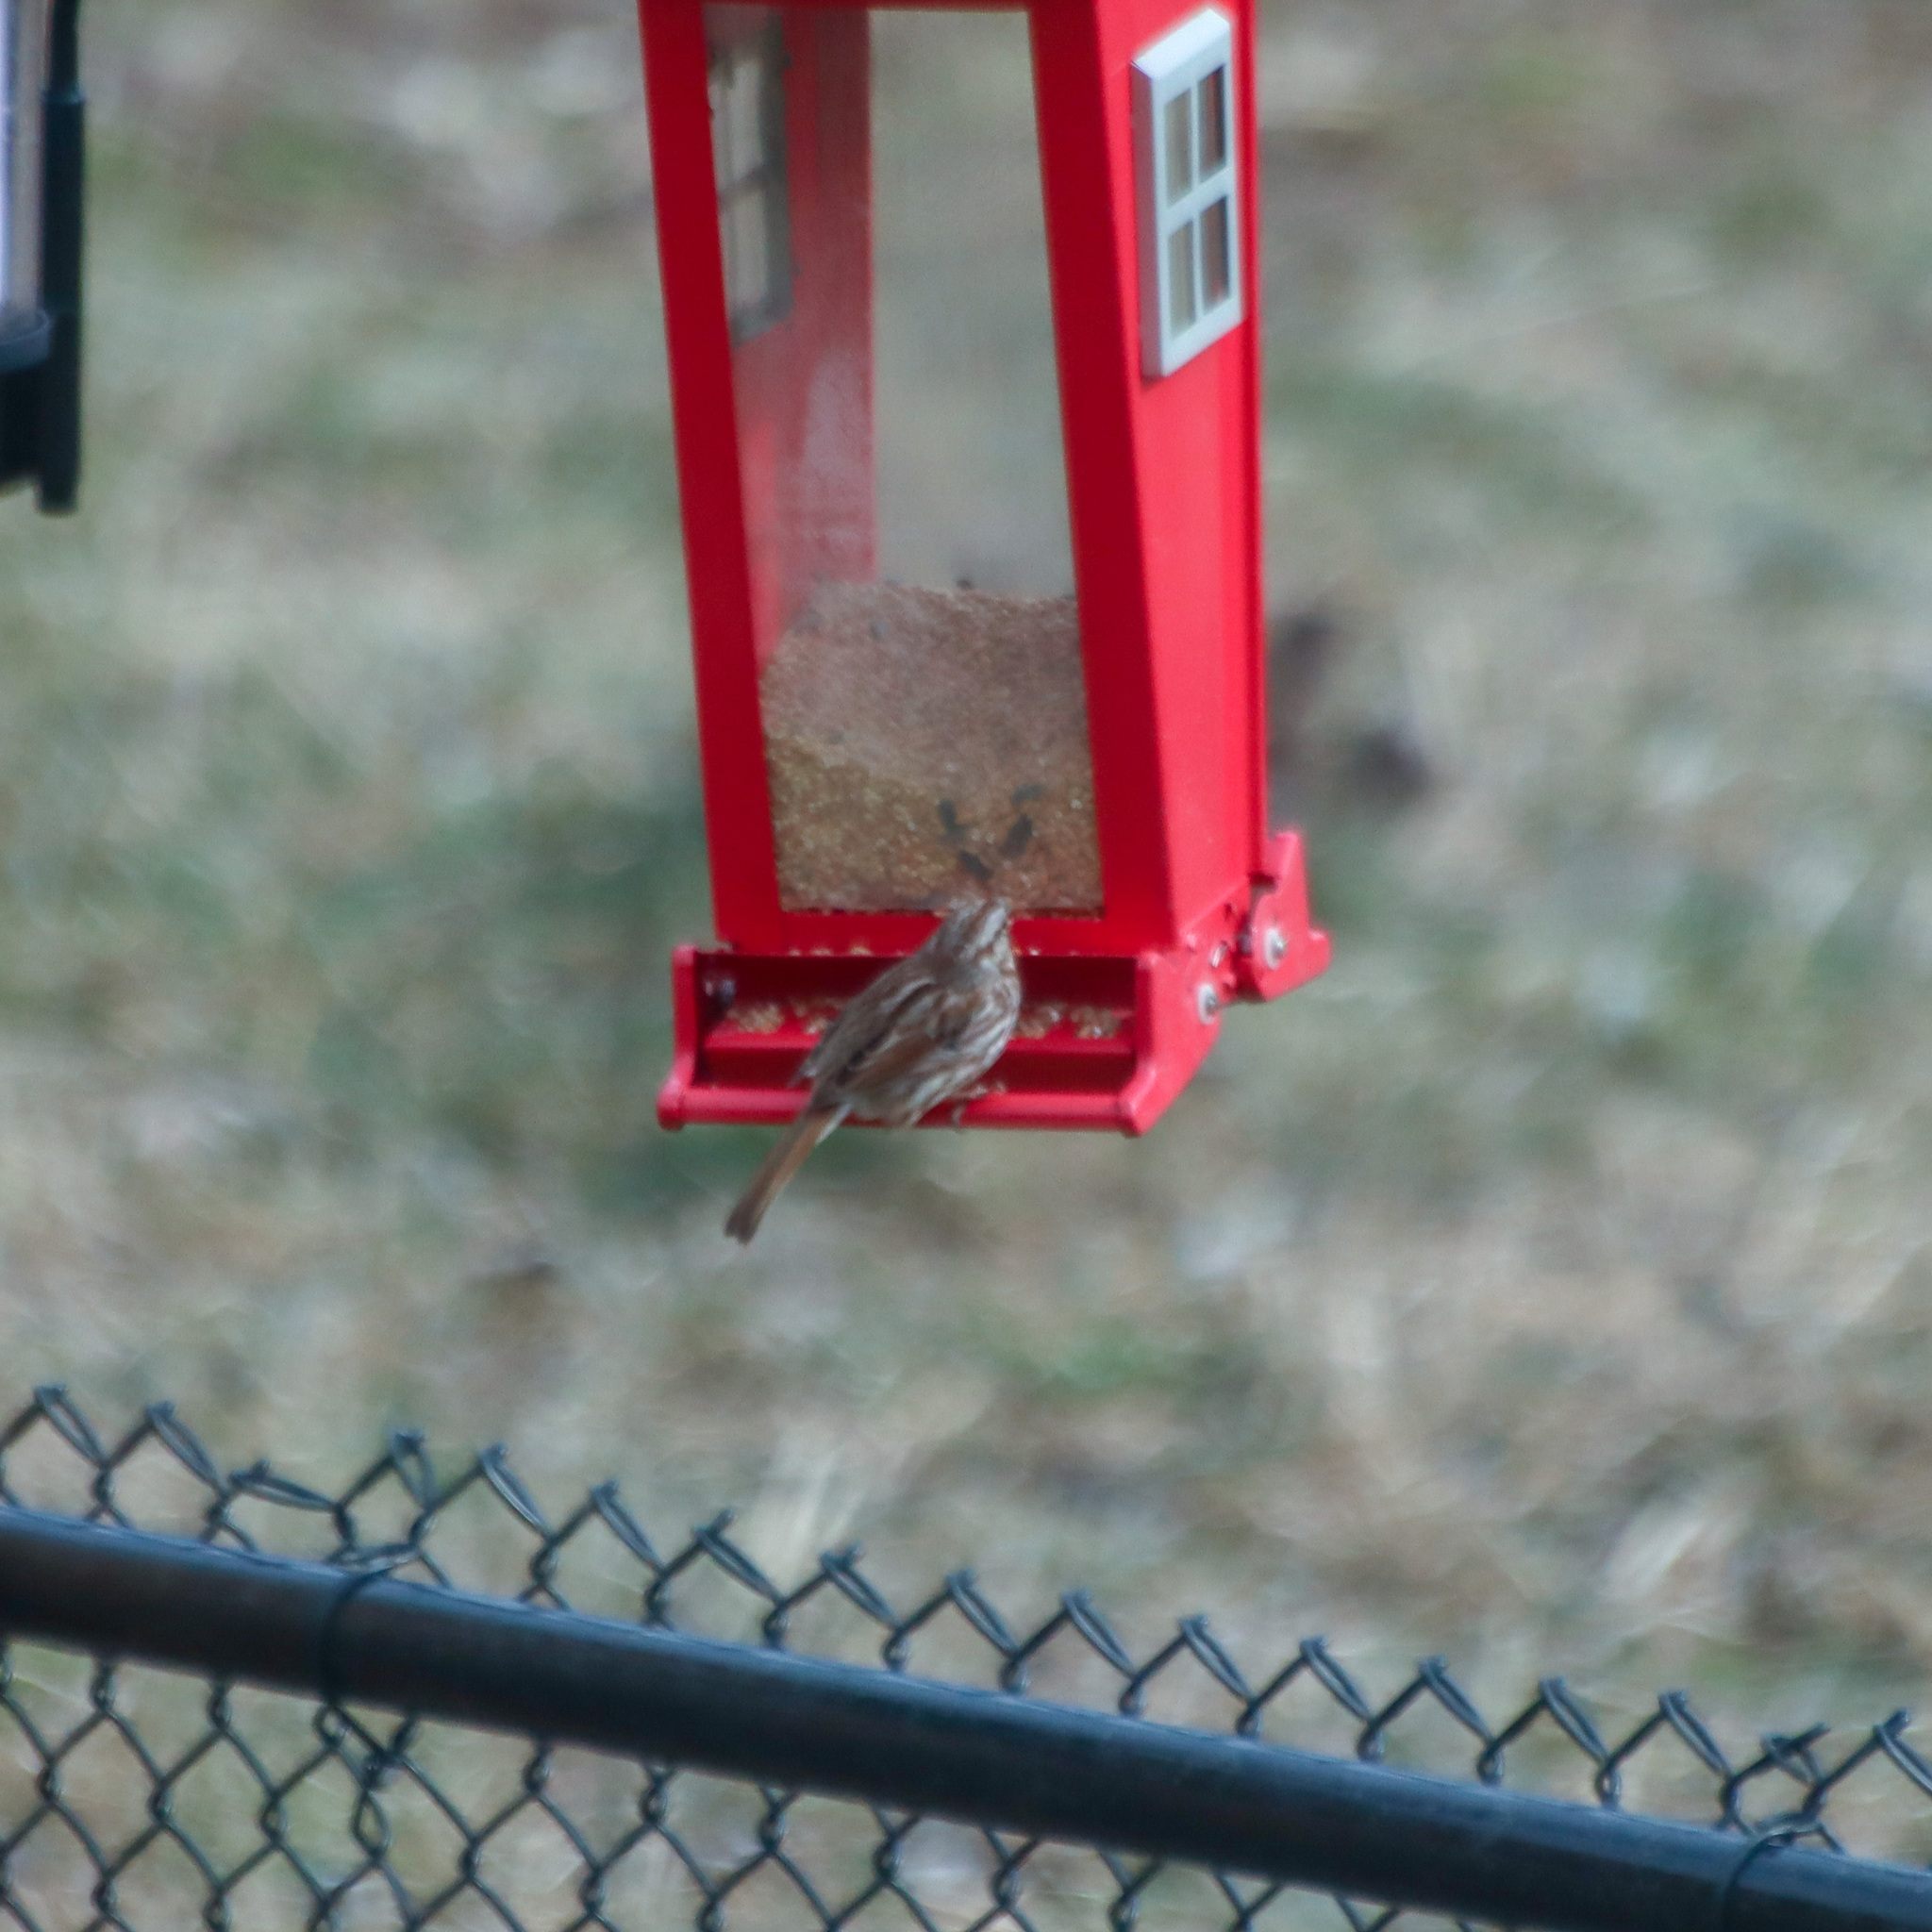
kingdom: Animalia
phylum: Chordata
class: Aves
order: Passeriformes
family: Passerellidae
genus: Melospiza
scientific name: Melospiza melodia
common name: Song sparrow
